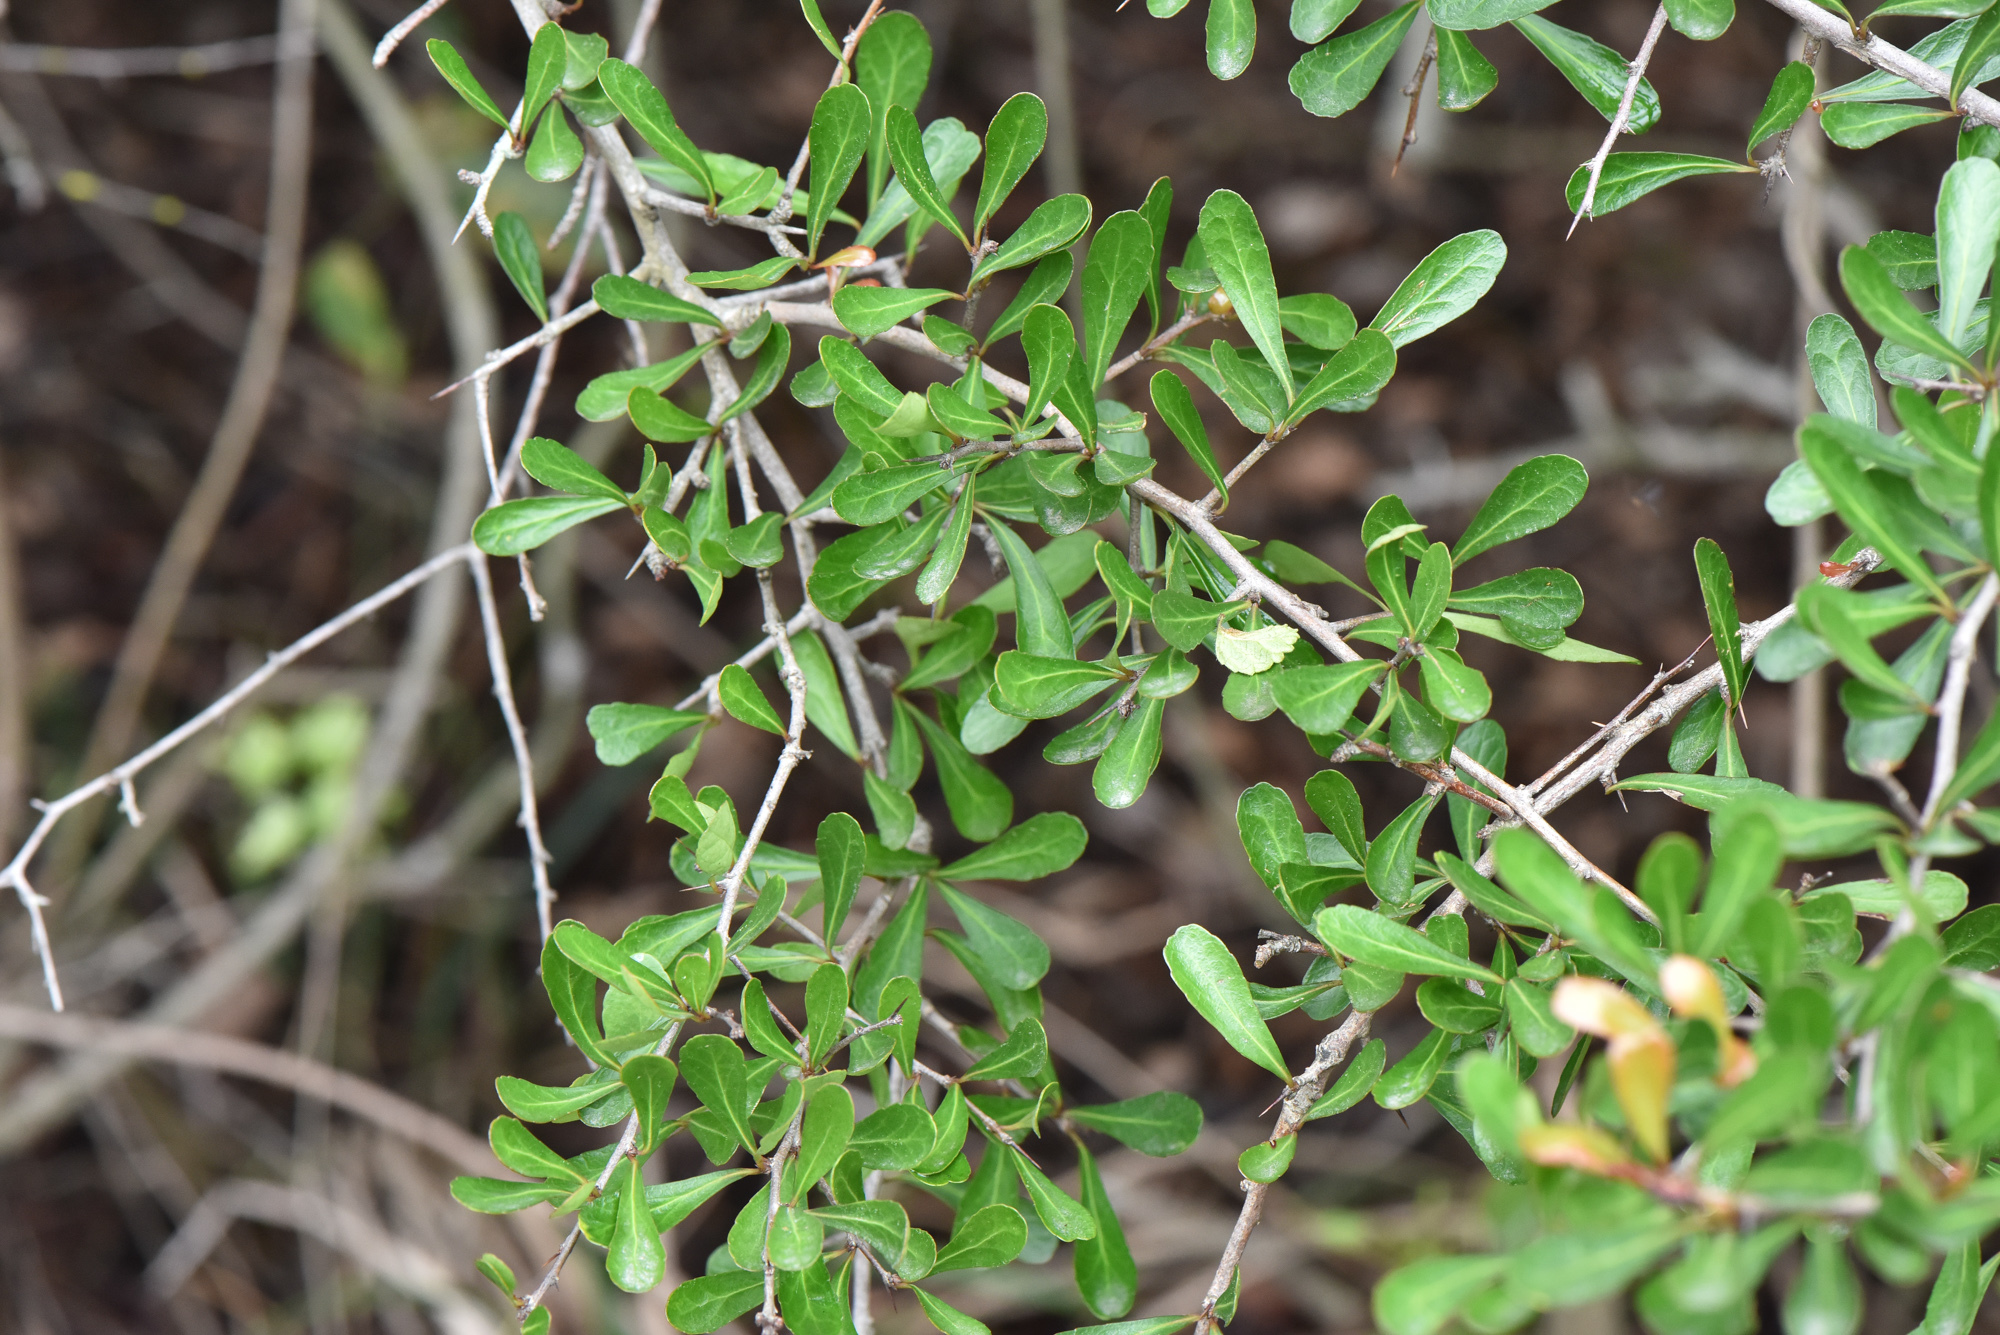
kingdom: Plantae
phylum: Tracheophyta
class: Magnoliopsida
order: Celastrales
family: Celastraceae
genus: Gymnosporia
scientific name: Gymnosporia diversifolia
